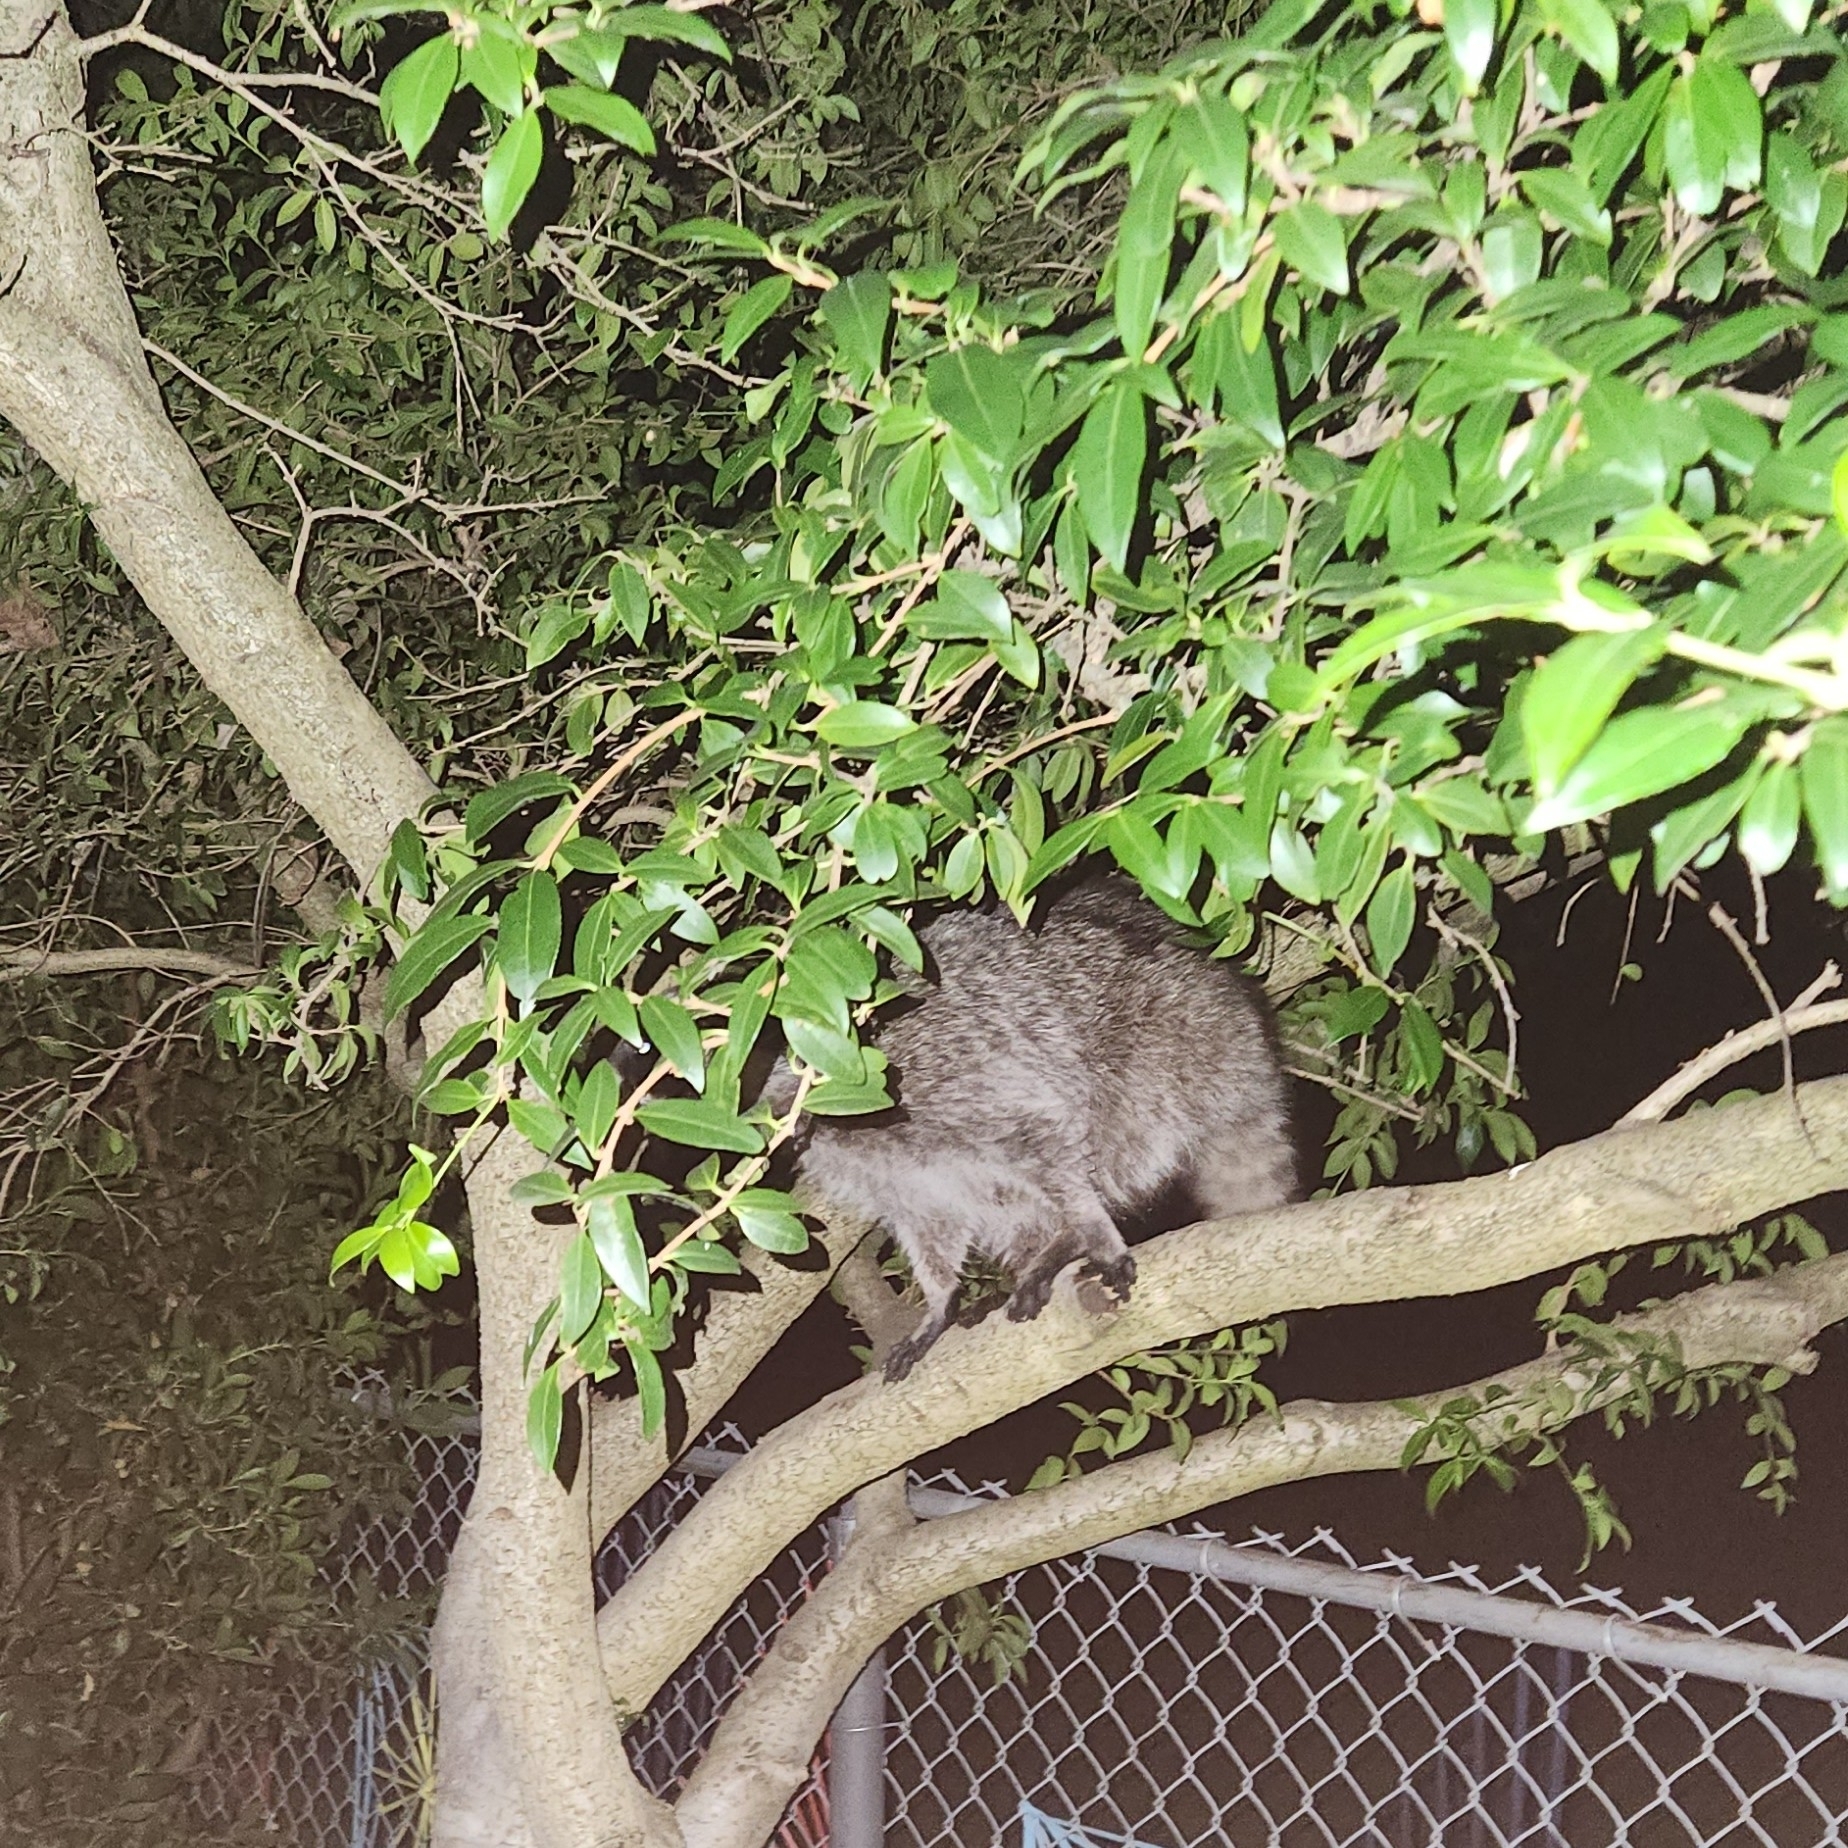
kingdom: Animalia
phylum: Chordata
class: Mammalia
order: Carnivora
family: Procyonidae
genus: Procyon
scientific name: Procyon lotor
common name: Raccoon
